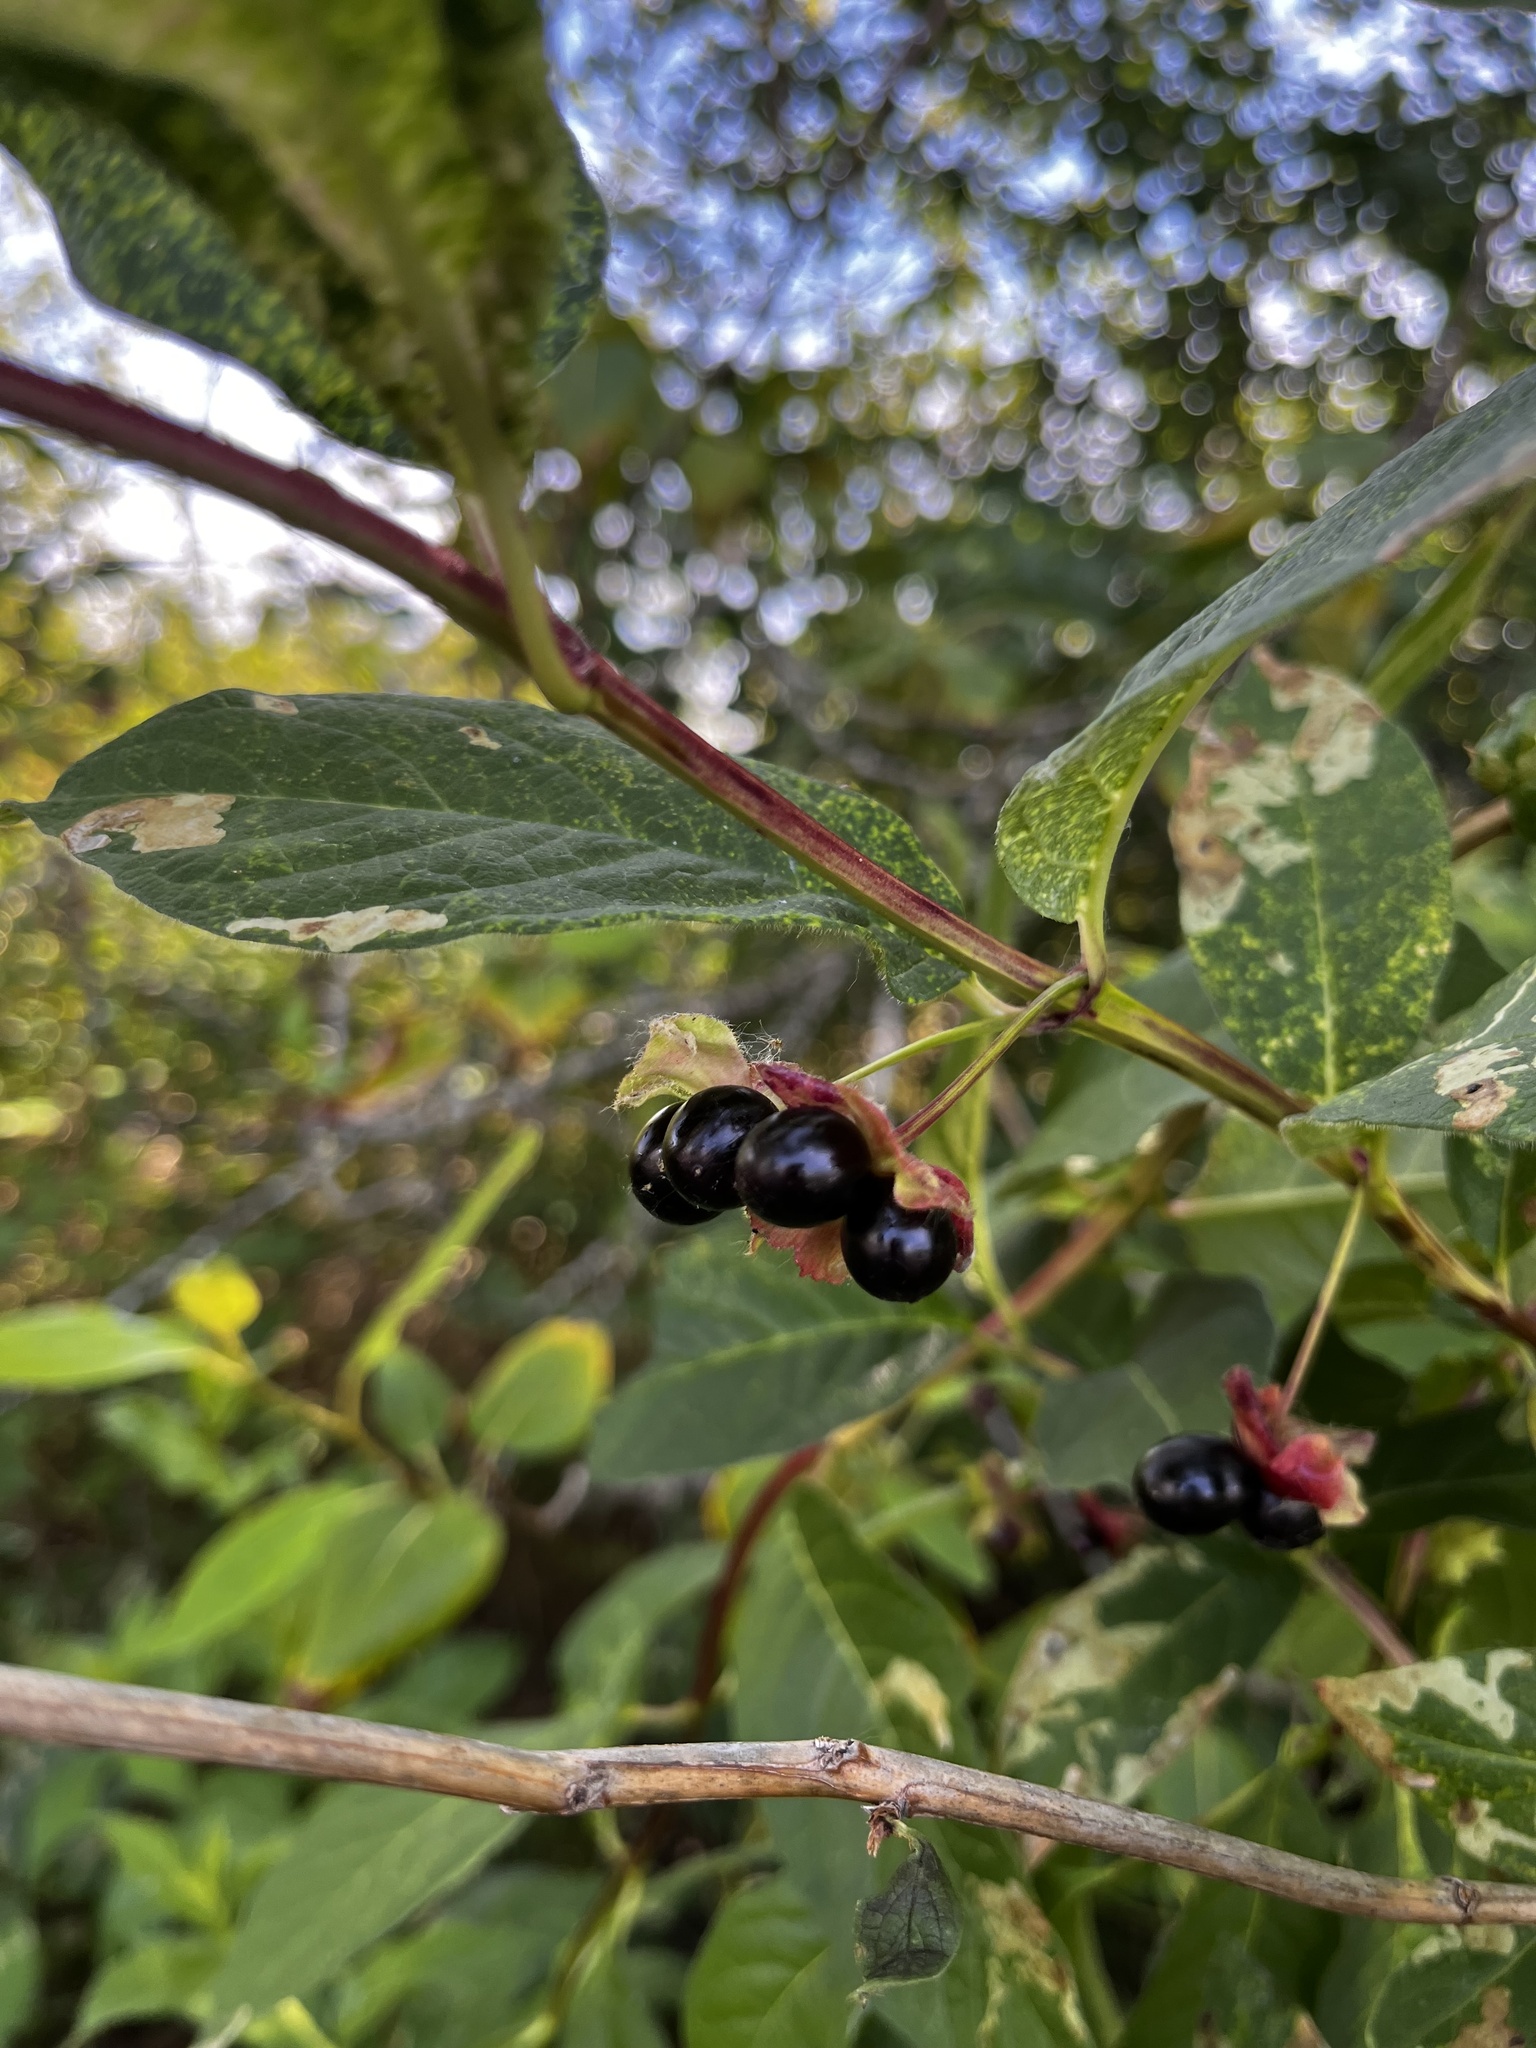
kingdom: Plantae
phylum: Tracheophyta
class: Magnoliopsida
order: Dipsacales
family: Caprifoliaceae
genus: Lonicera
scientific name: Lonicera involucrata
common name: Californian honeysuckle
